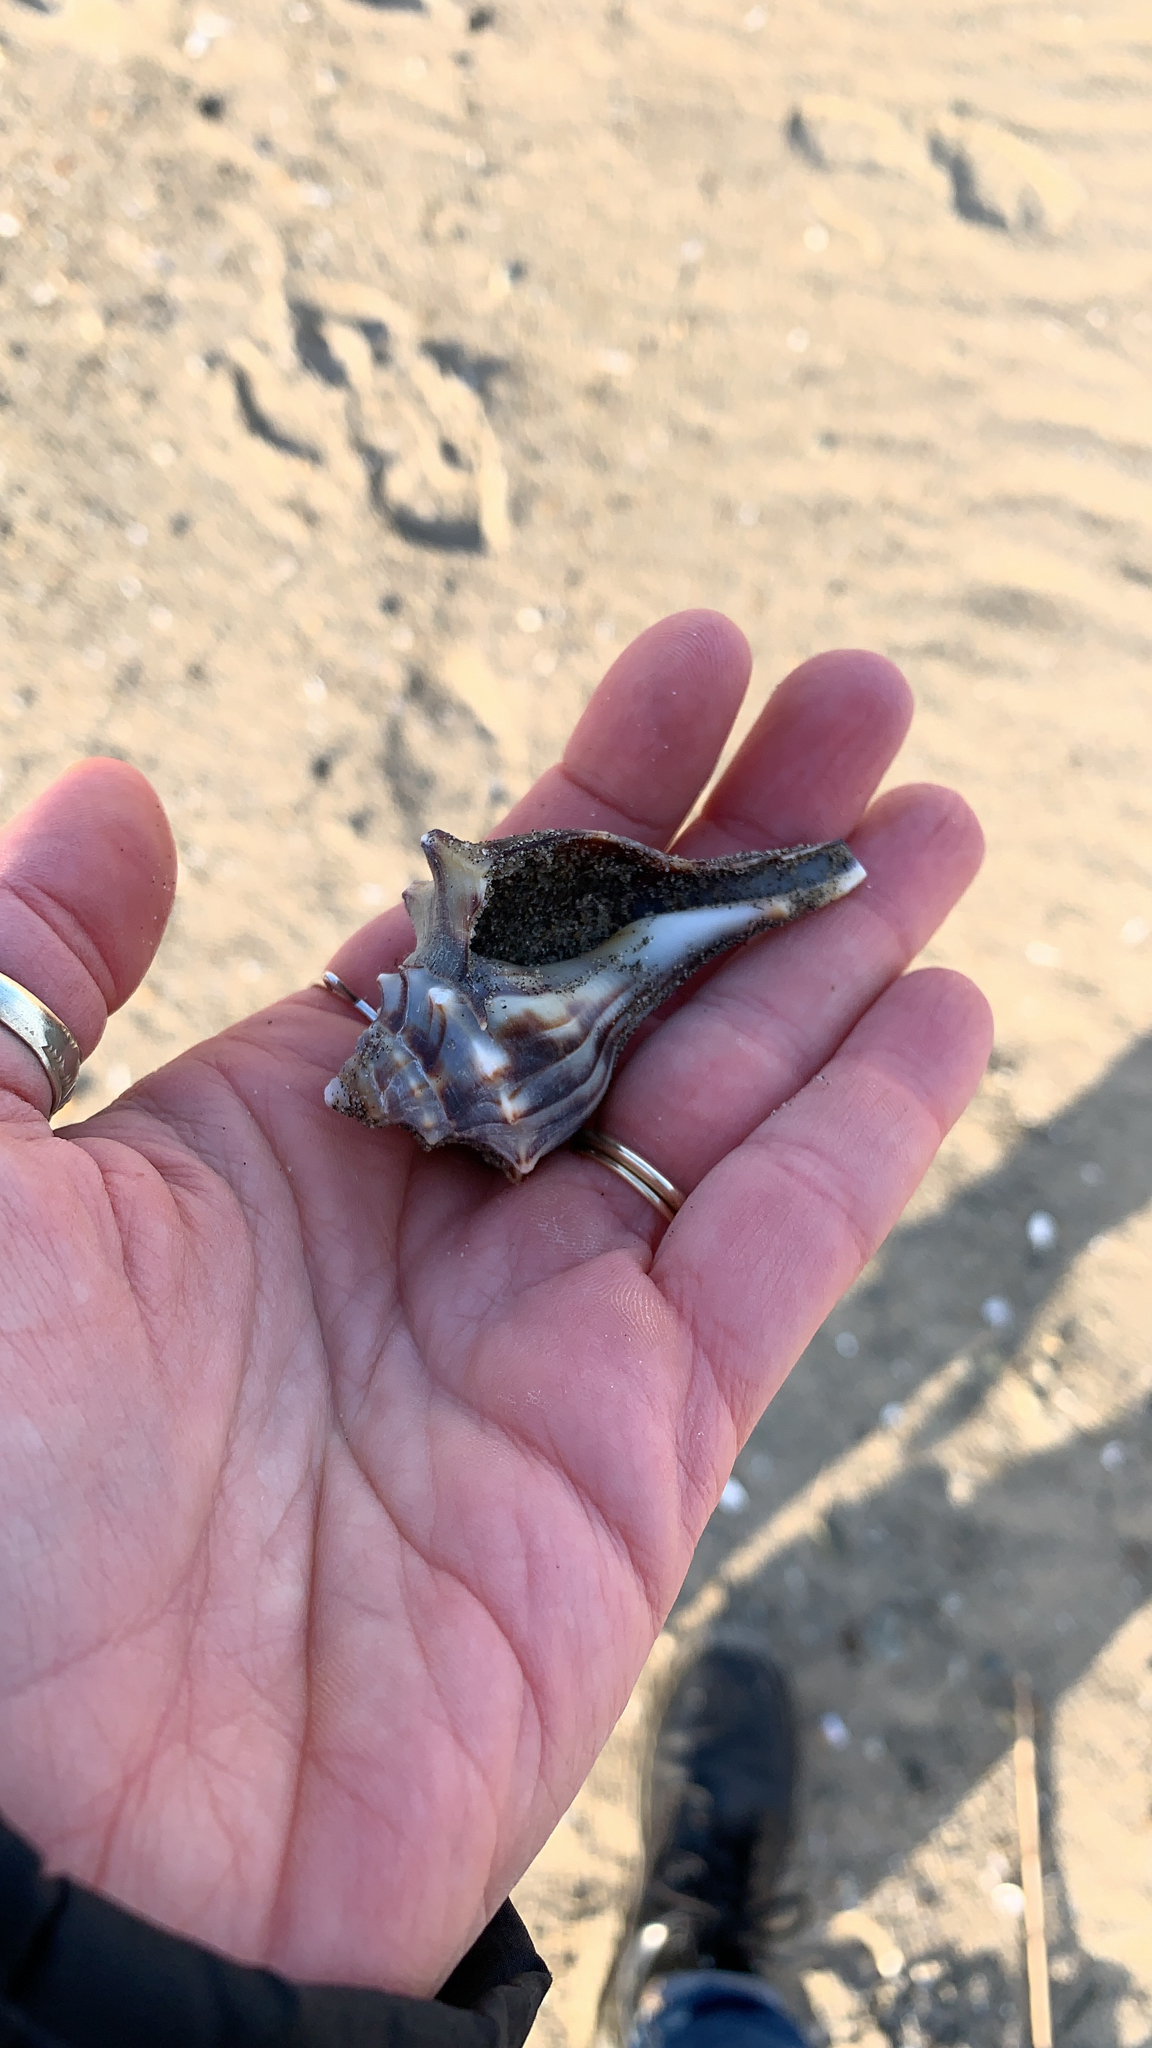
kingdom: Animalia
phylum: Mollusca
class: Gastropoda
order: Neogastropoda
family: Busyconidae
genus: Busycon
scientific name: Busycon carica
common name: Knobbed whelk
